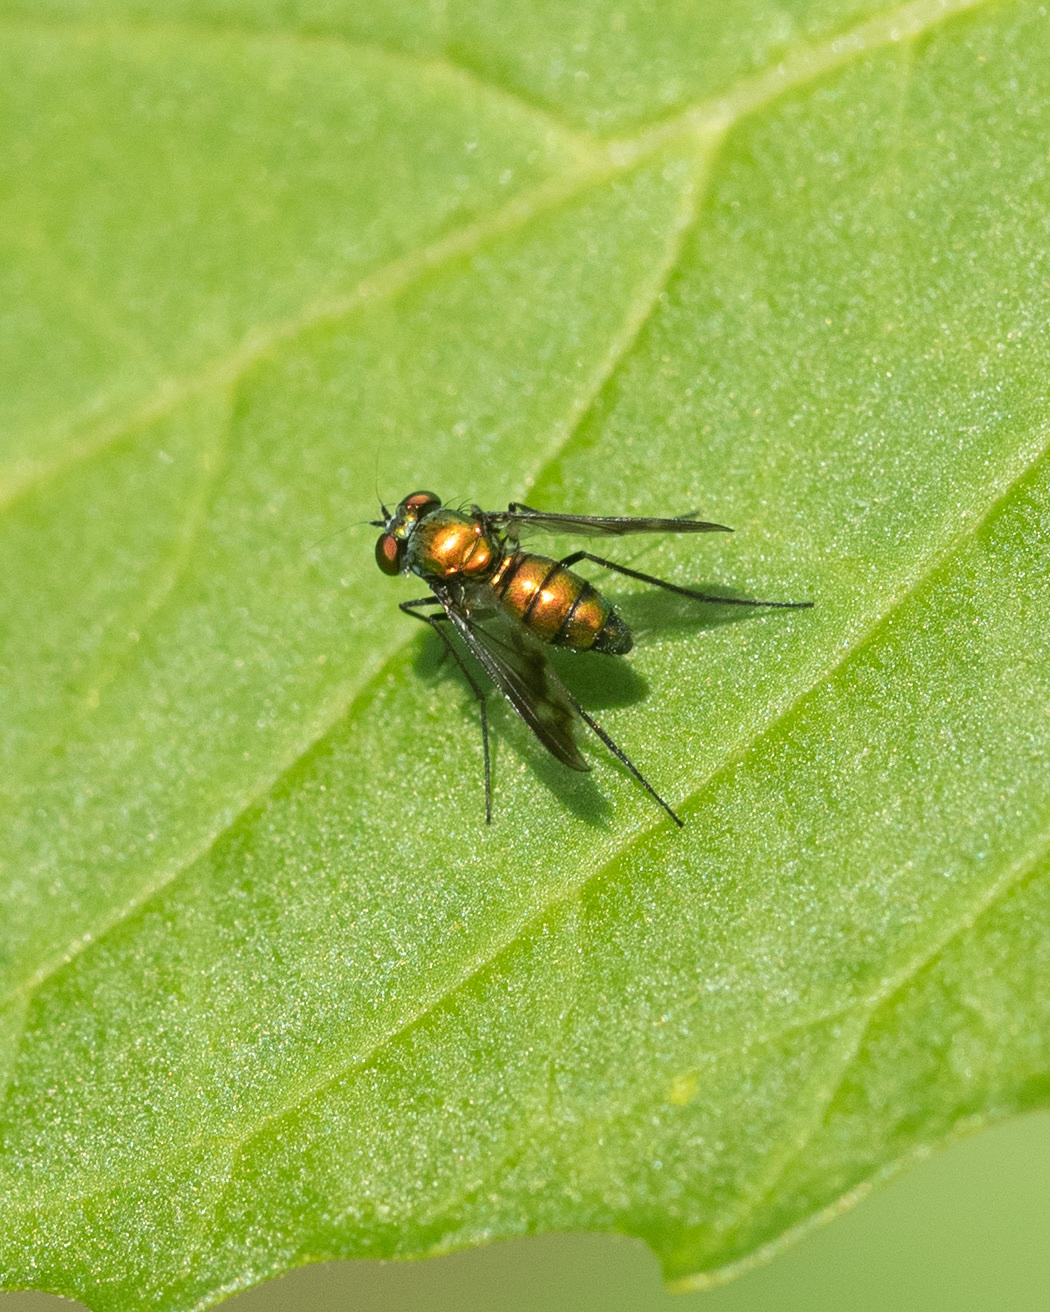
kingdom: Animalia
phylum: Arthropoda
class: Insecta
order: Diptera
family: Dolichopodidae
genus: Condylostylus
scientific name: Condylostylus patibulatus
